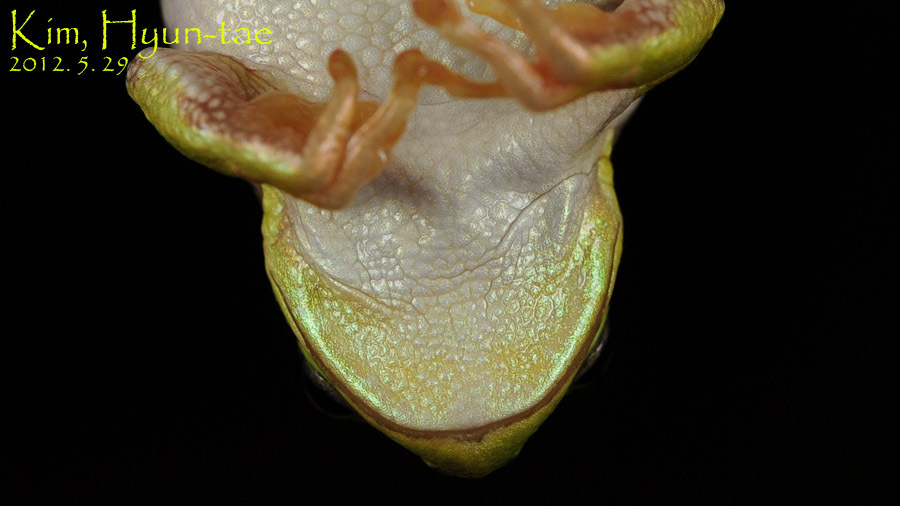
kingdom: Animalia
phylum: Chordata
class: Amphibia
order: Anura
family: Hylidae
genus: Dryophytes
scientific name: Dryophytes japonicus
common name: Japanese treefrog
